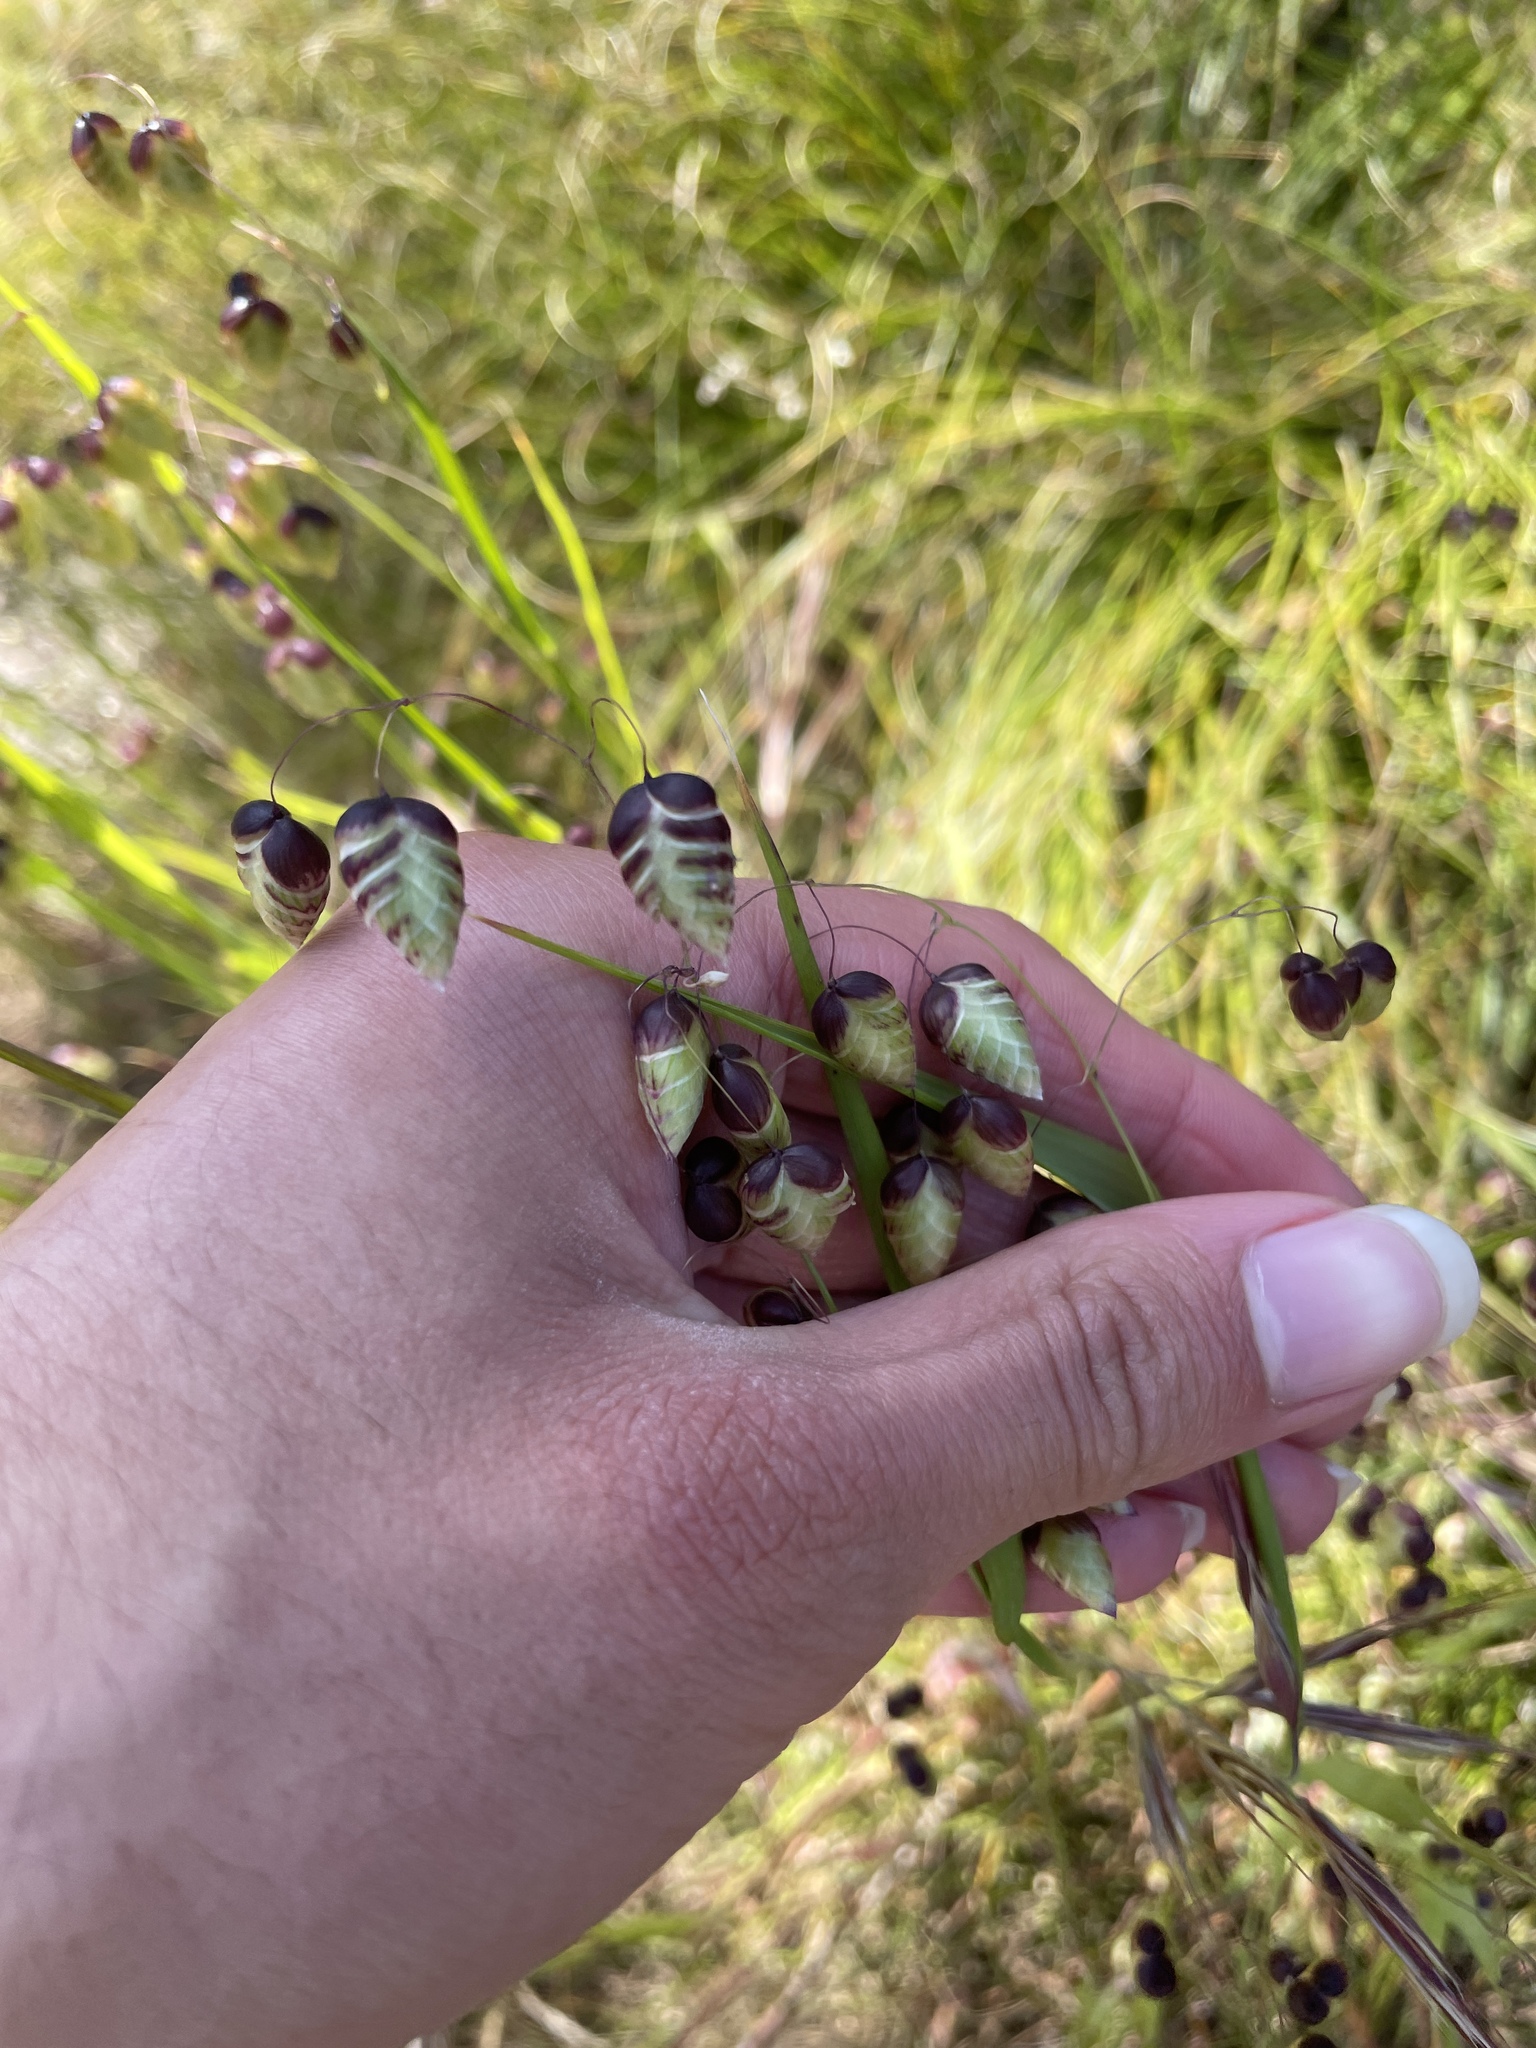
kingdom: Plantae
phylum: Tracheophyta
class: Liliopsida
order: Poales
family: Poaceae
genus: Briza
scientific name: Briza maxima
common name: Big quakinggrass
